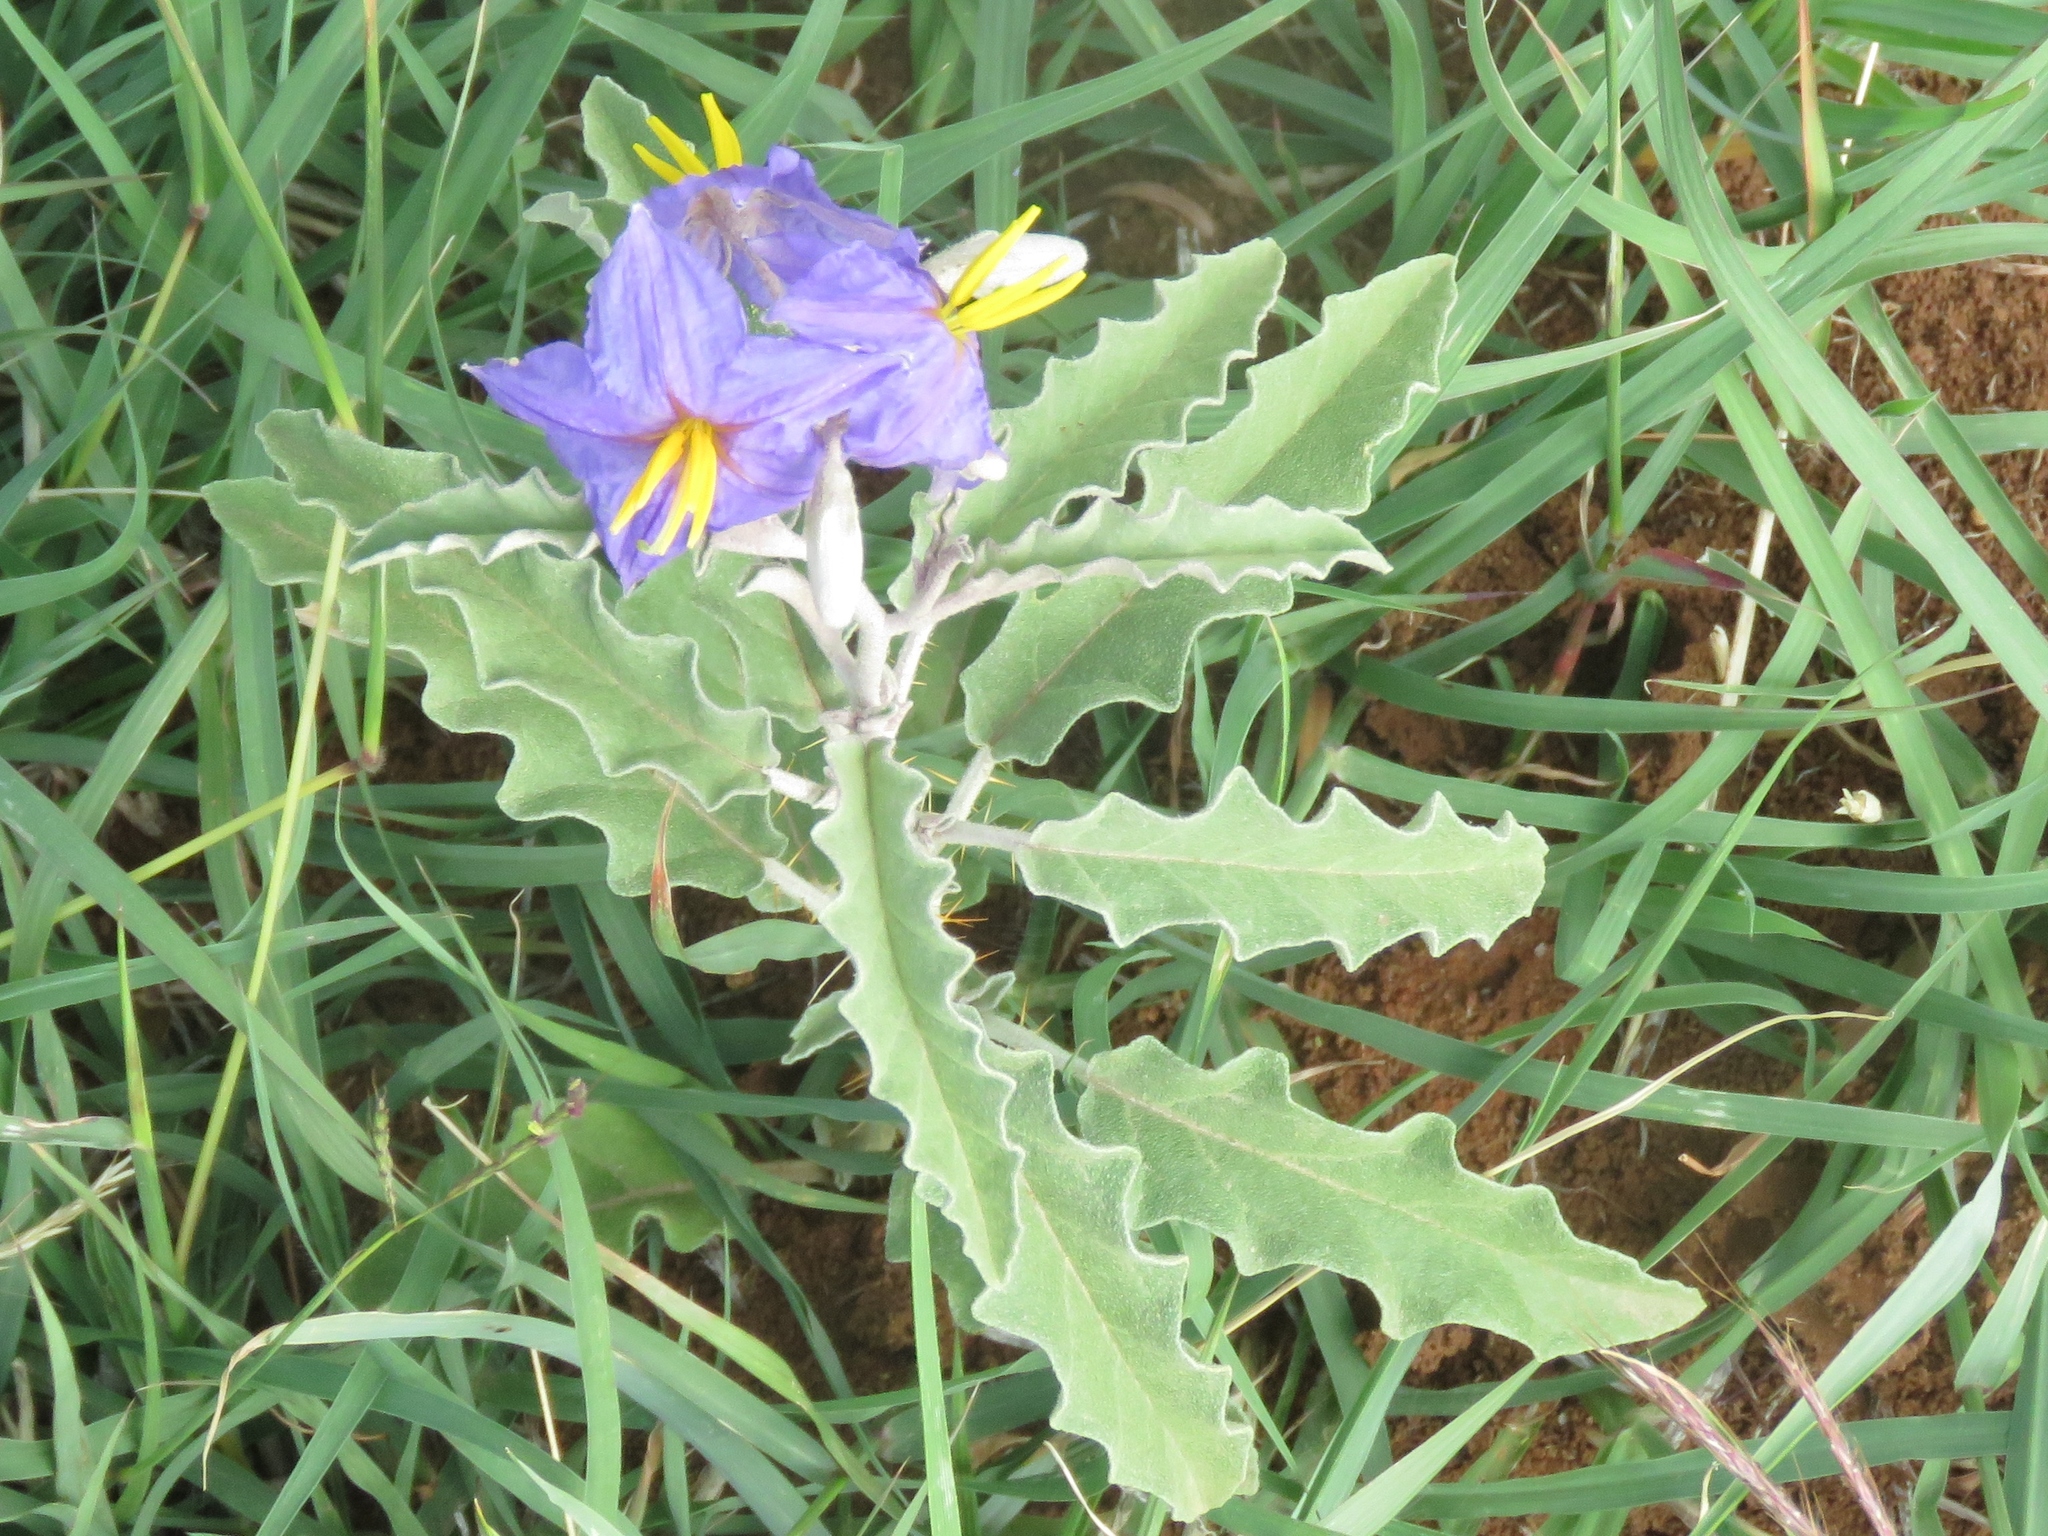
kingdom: Plantae
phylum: Tracheophyta
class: Magnoliopsida
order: Solanales
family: Solanaceae
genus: Solanum
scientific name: Solanum elaeagnifolium
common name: Silverleaf nightshade
